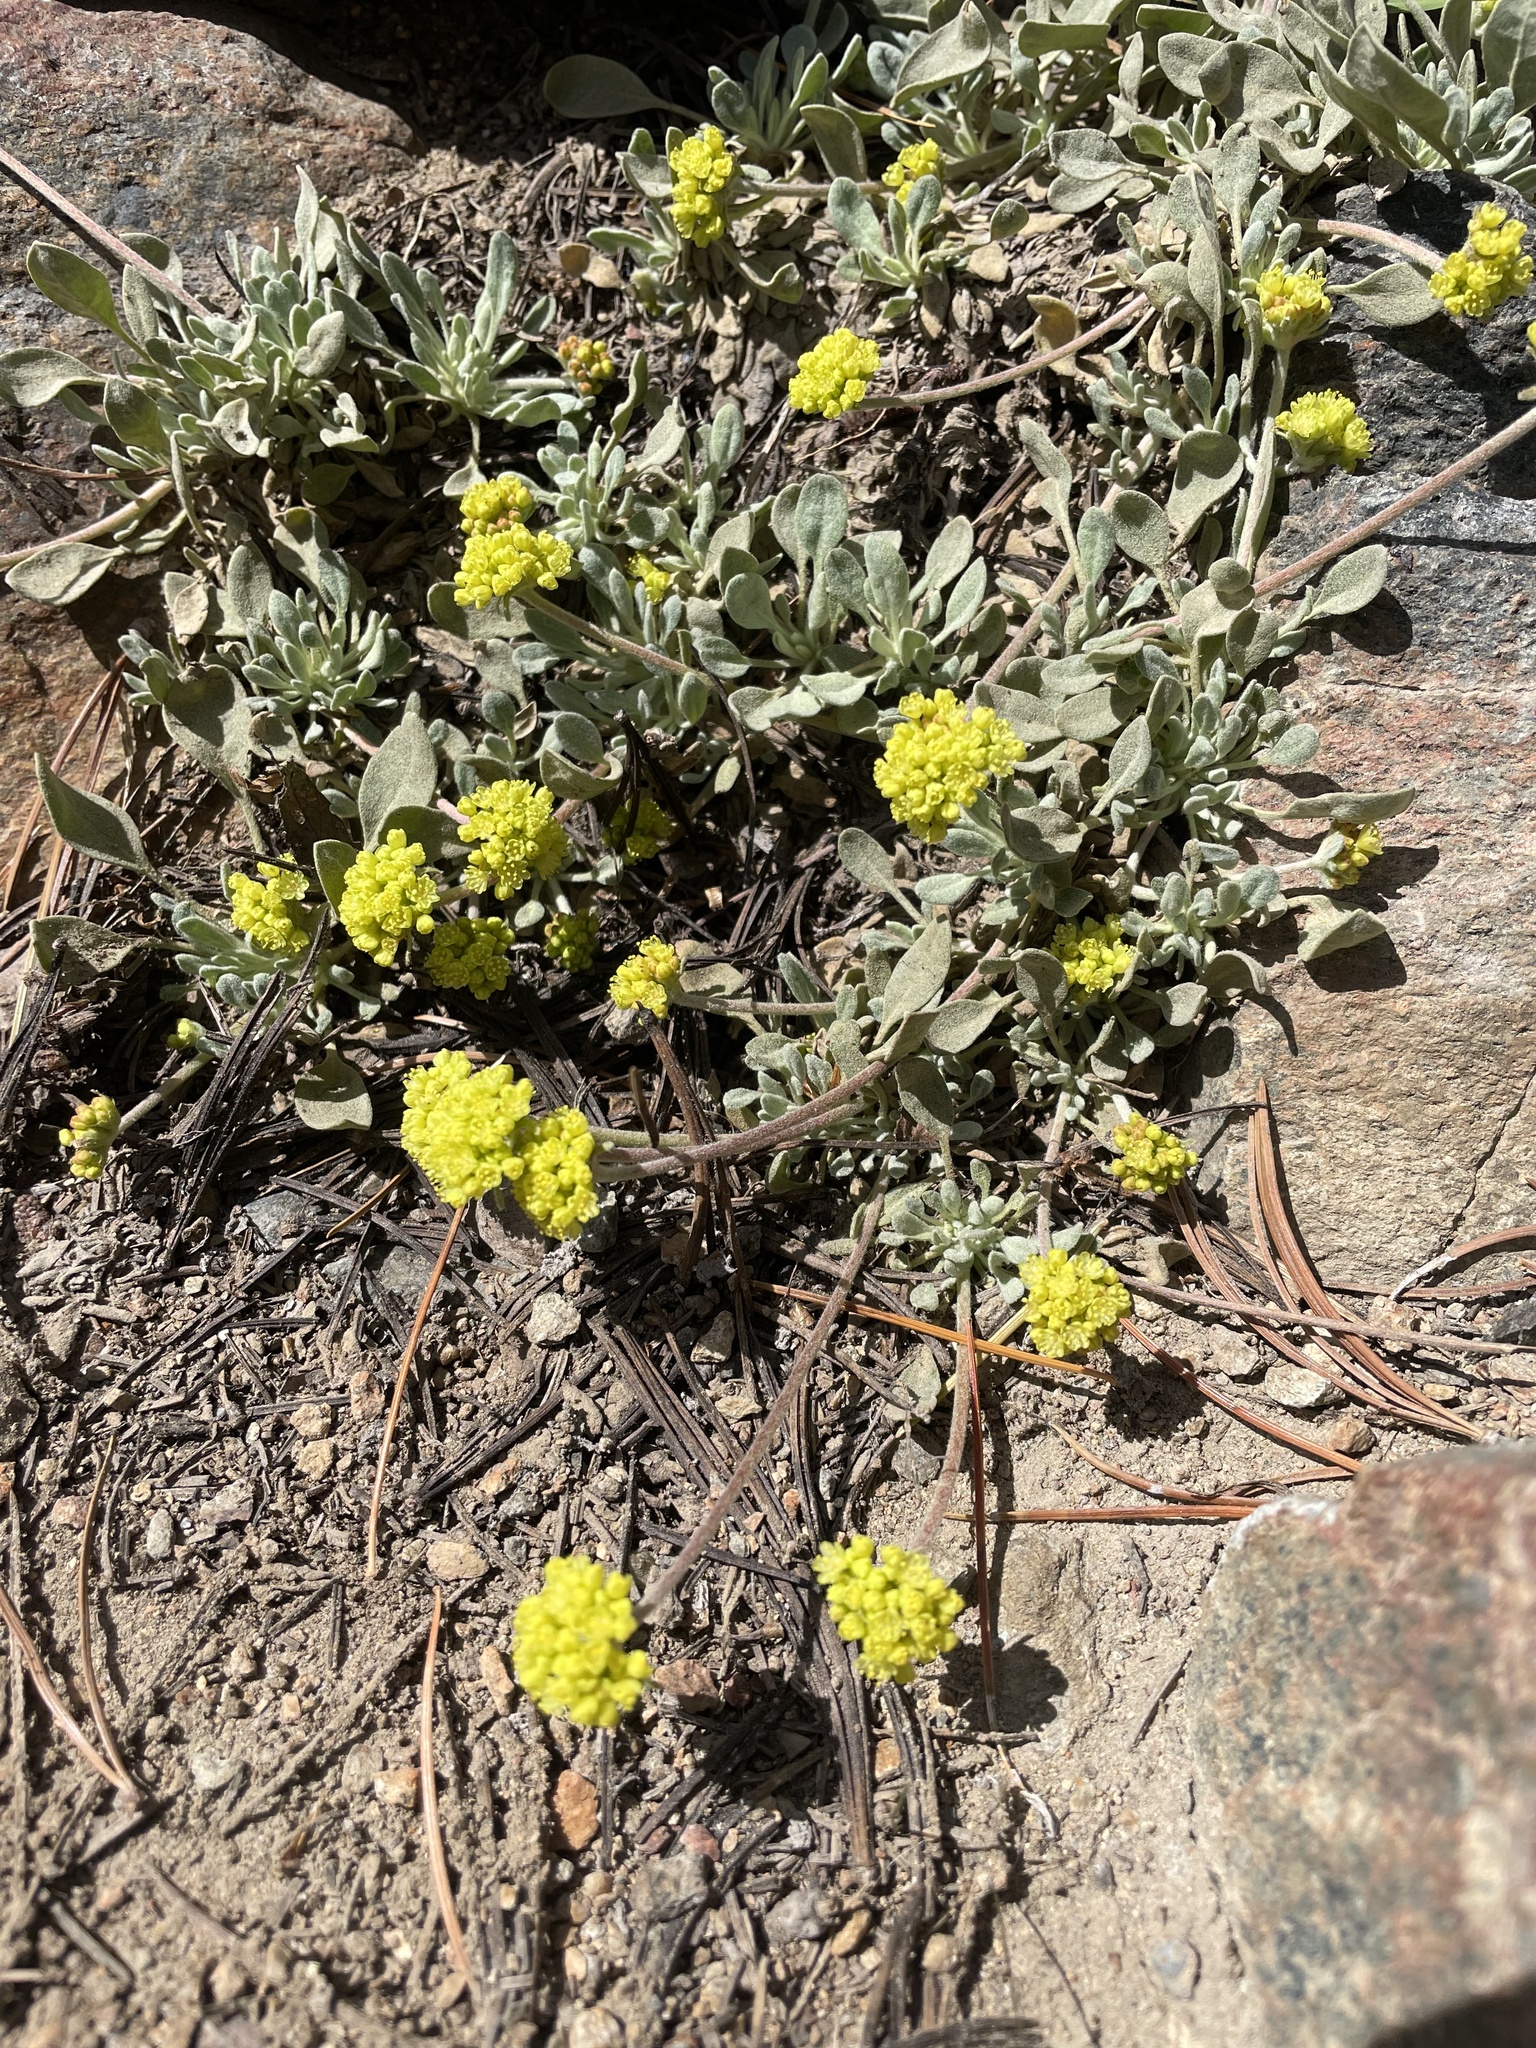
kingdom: Plantae
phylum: Tracheophyta
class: Magnoliopsida
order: Caryophyllales
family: Polygonaceae
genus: Eriogonum
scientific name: Eriogonum umbellatum
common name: Sulfur-buckwheat
